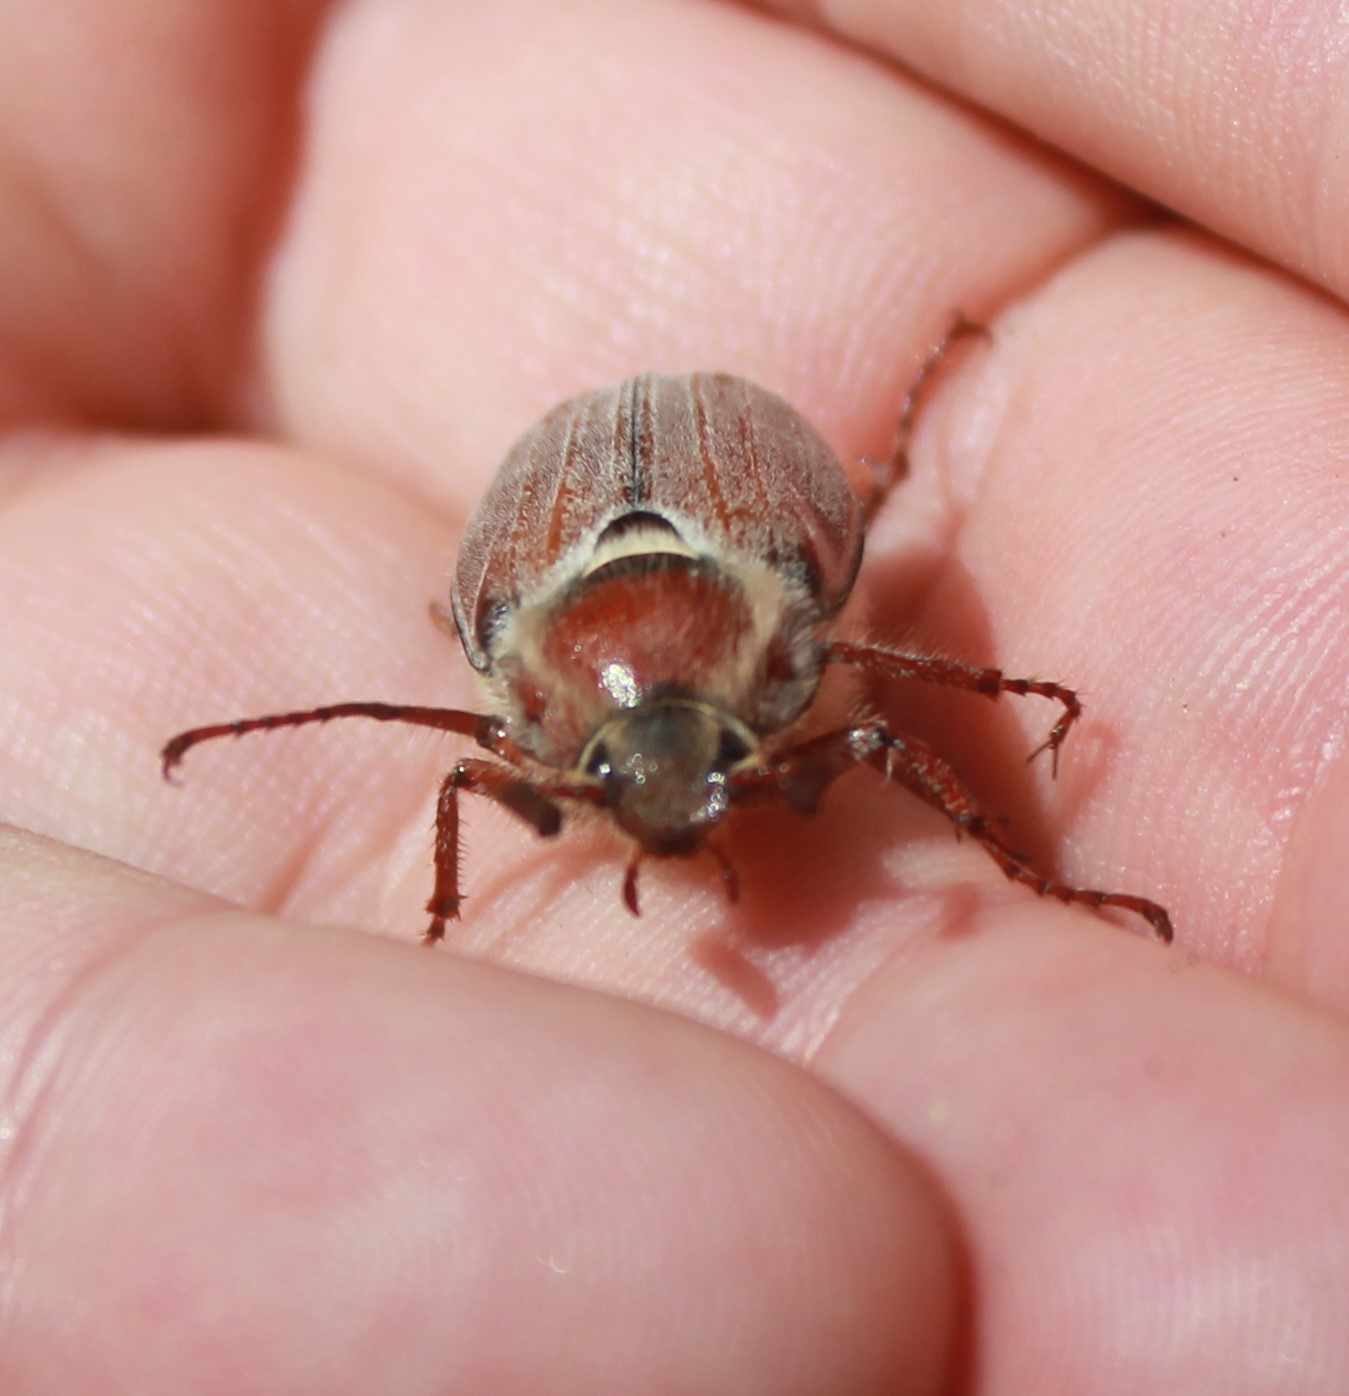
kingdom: Animalia
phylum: Arthropoda
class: Insecta
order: Coleoptera
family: Scarabaeidae
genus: Melolontha
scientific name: Melolontha hippocastani
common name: Chestnut cockchafer
